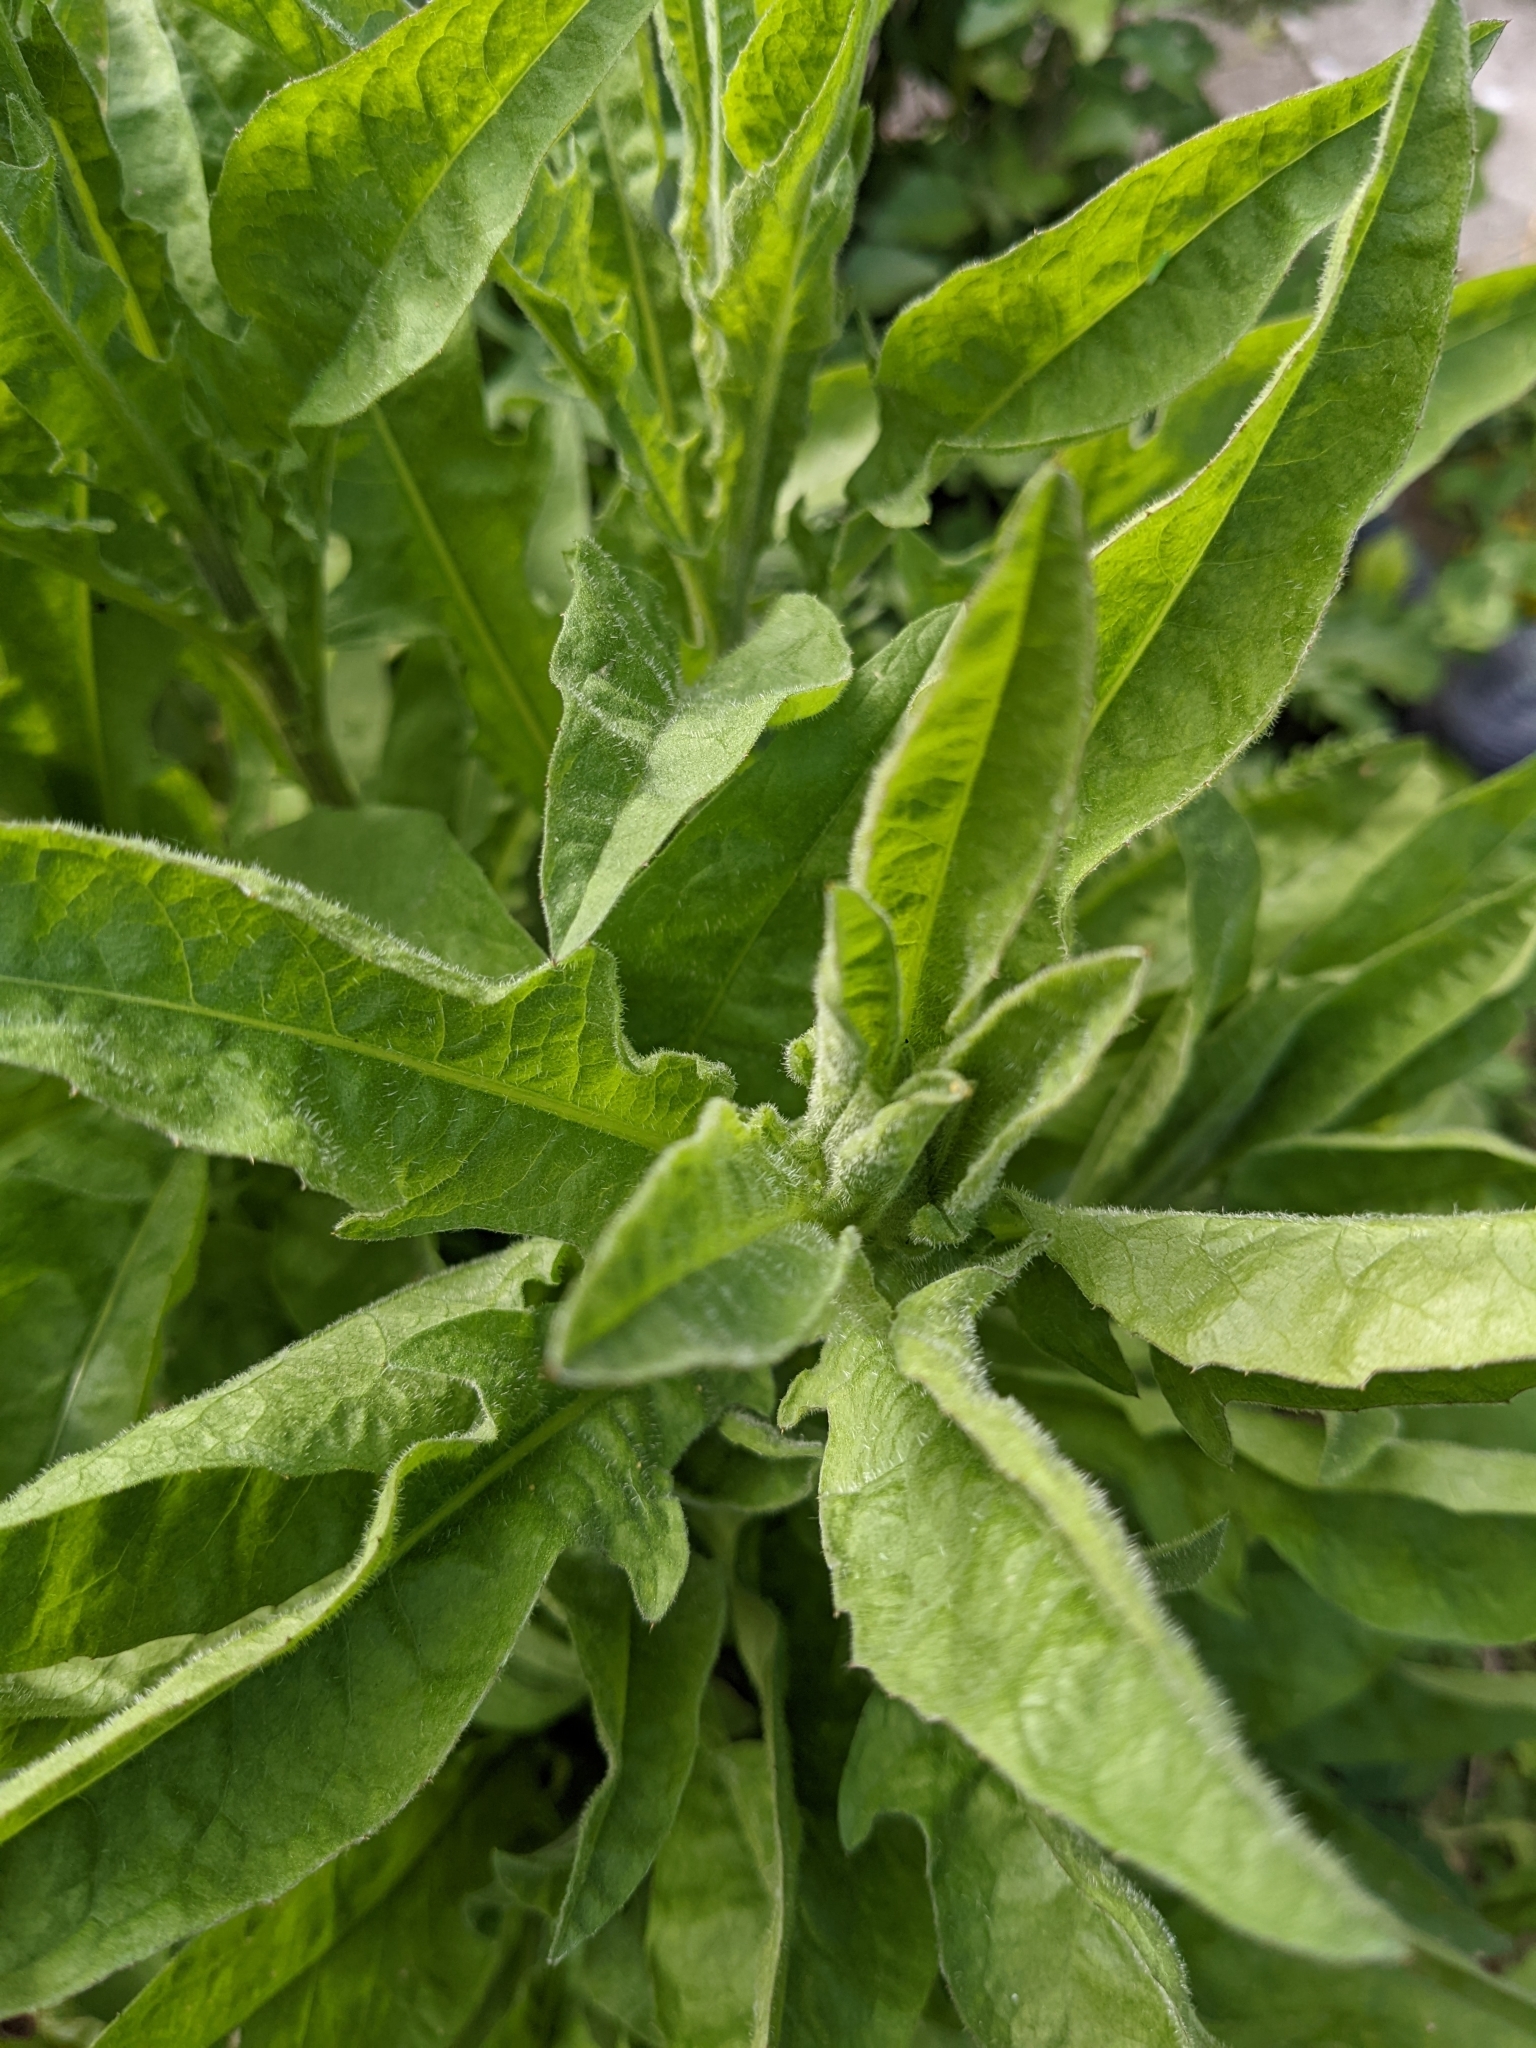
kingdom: Plantae
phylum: Tracheophyta
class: Magnoliopsida
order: Asterales
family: Asteraceae
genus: Centaurea
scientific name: Centaurea nigra
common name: Lesser knapweed
